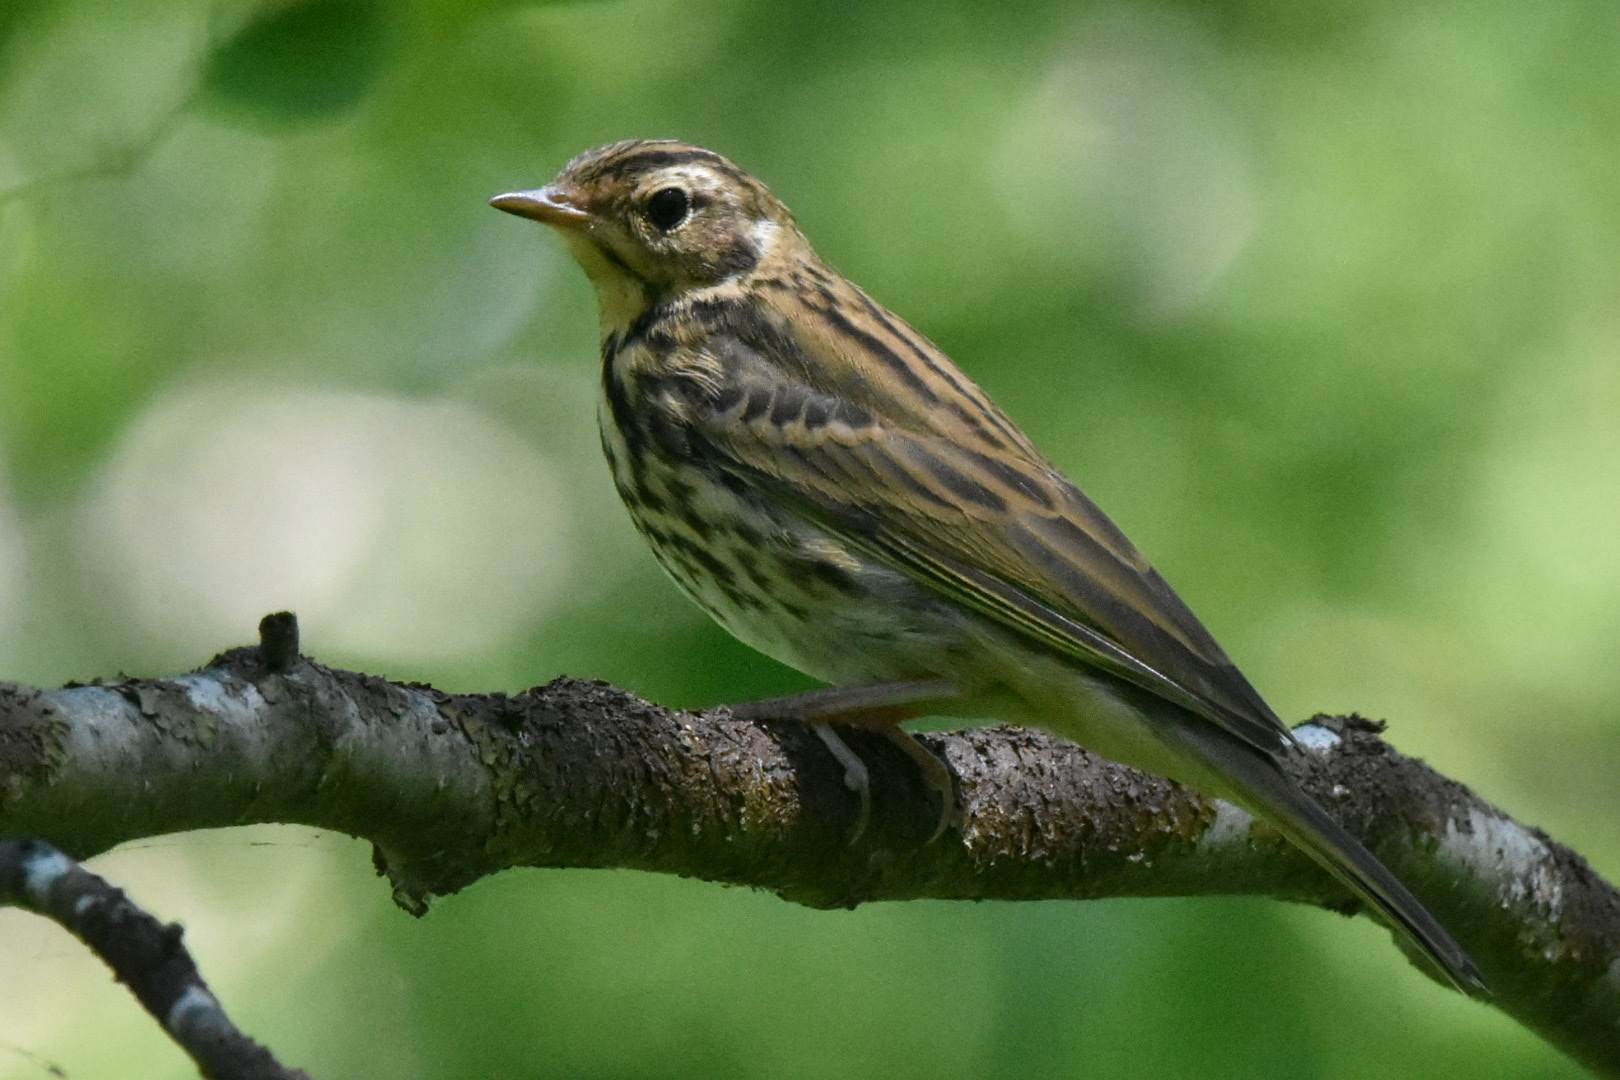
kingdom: Animalia
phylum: Chordata
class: Aves
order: Passeriformes
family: Motacillidae
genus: Anthus
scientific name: Anthus hodgsoni
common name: Olive-backed pipit
